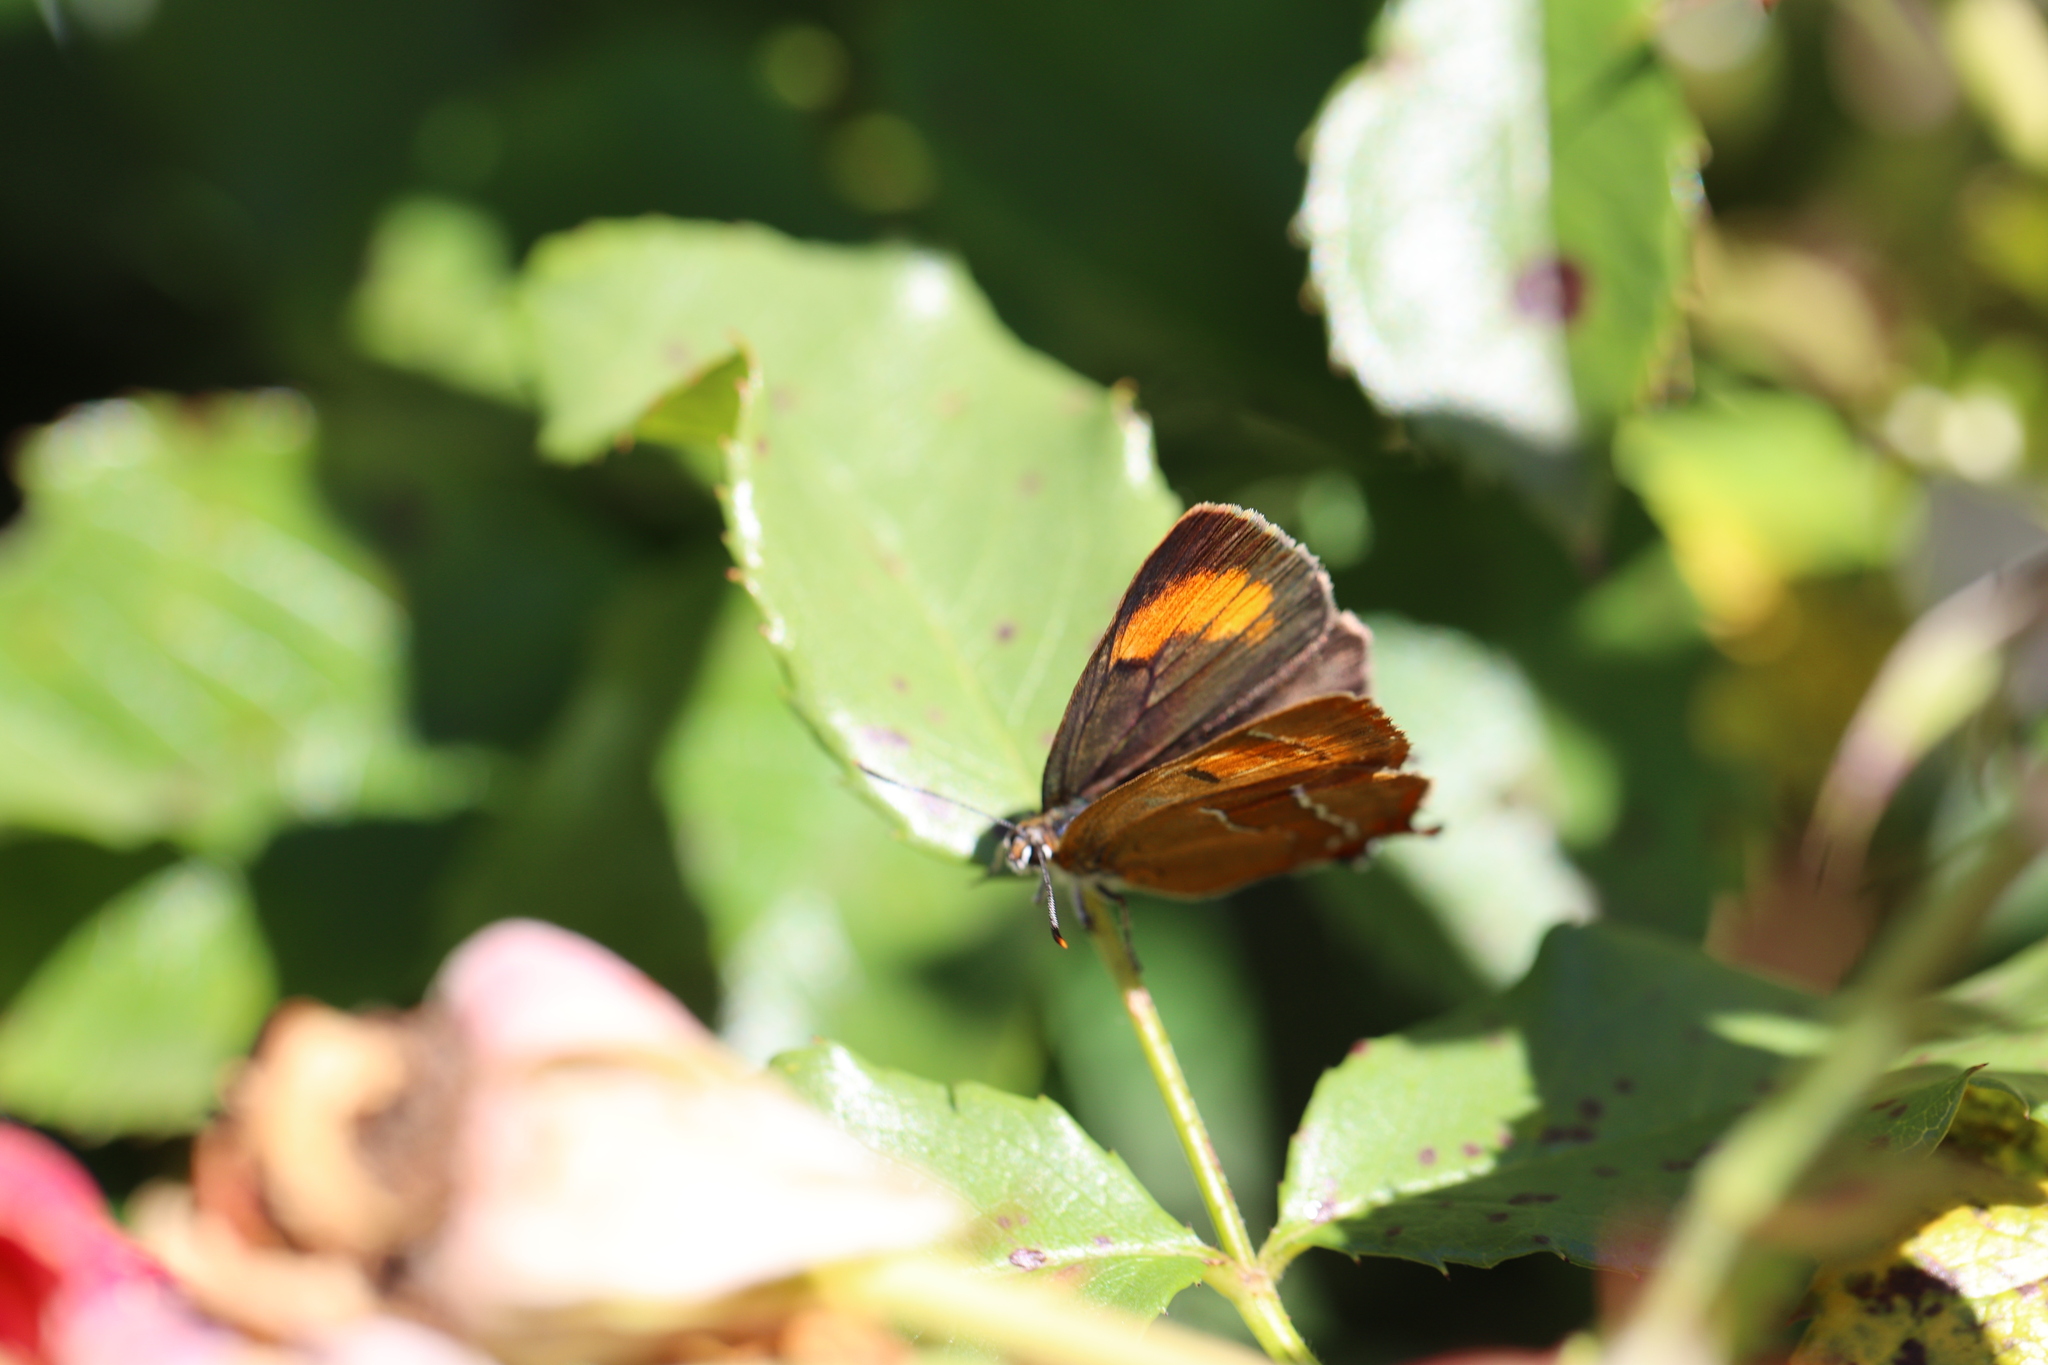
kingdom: Animalia
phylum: Arthropoda
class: Insecta
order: Lepidoptera
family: Lycaenidae
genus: Thecla
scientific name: Thecla betulae
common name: Brown hairstreak
